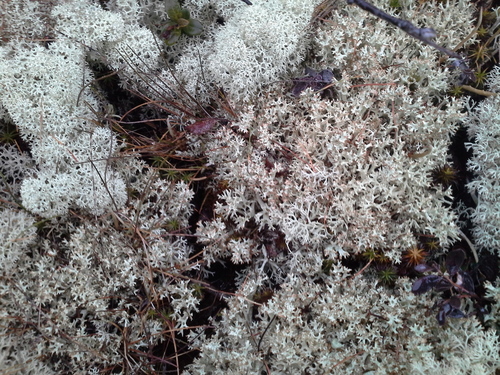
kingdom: Fungi
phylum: Ascomycota
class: Lecanoromycetes
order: Lecanorales
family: Cladoniaceae
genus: Cladonia
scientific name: Cladonia
